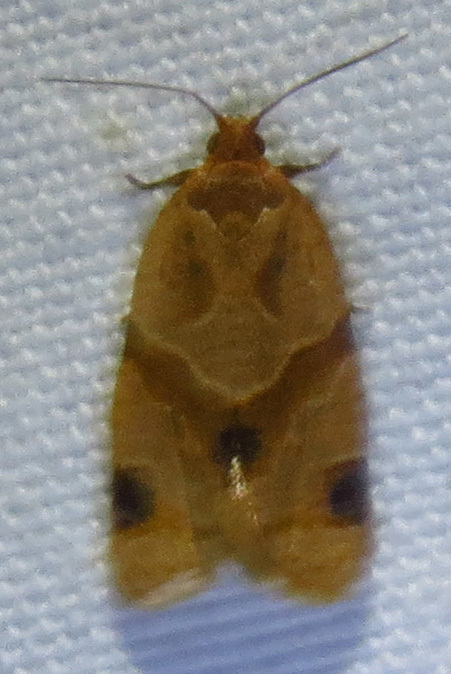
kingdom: Animalia
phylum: Arthropoda
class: Insecta
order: Lepidoptera
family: Tortricidae
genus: Clepsis
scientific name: Clepsis peritana
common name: Garden tortrix
